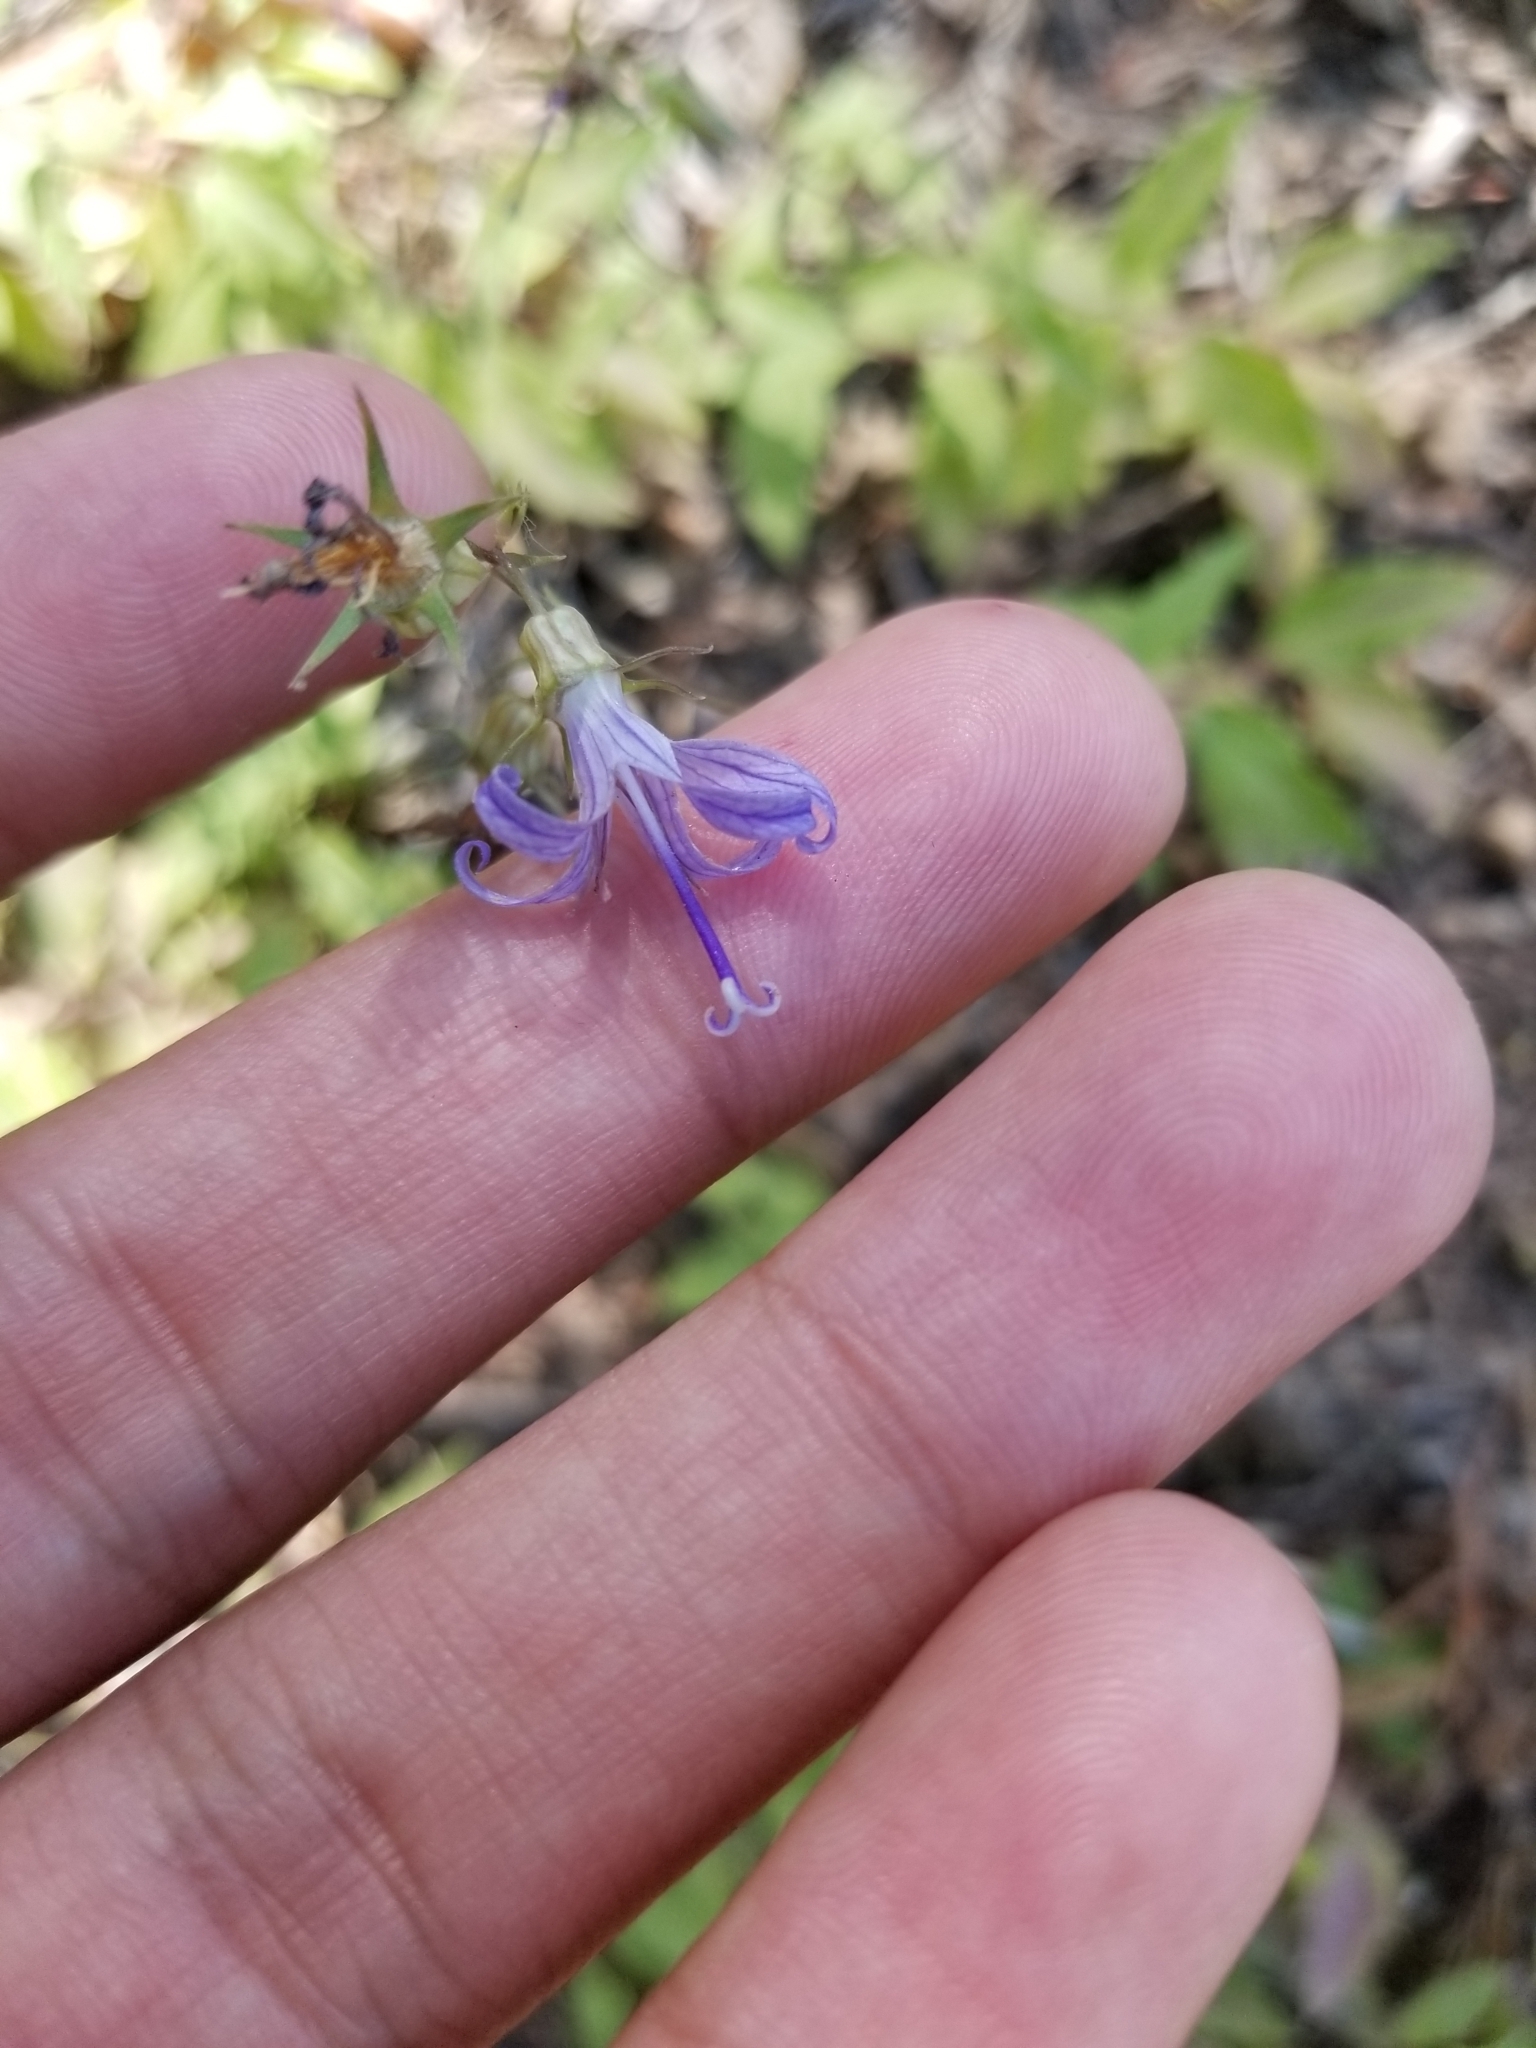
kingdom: Plantae
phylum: Tracheophyta
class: Magnoliopsida
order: Asterales
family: Campanulaceae
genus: Smithiastrum
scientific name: Smithiastrum prenanthoides
